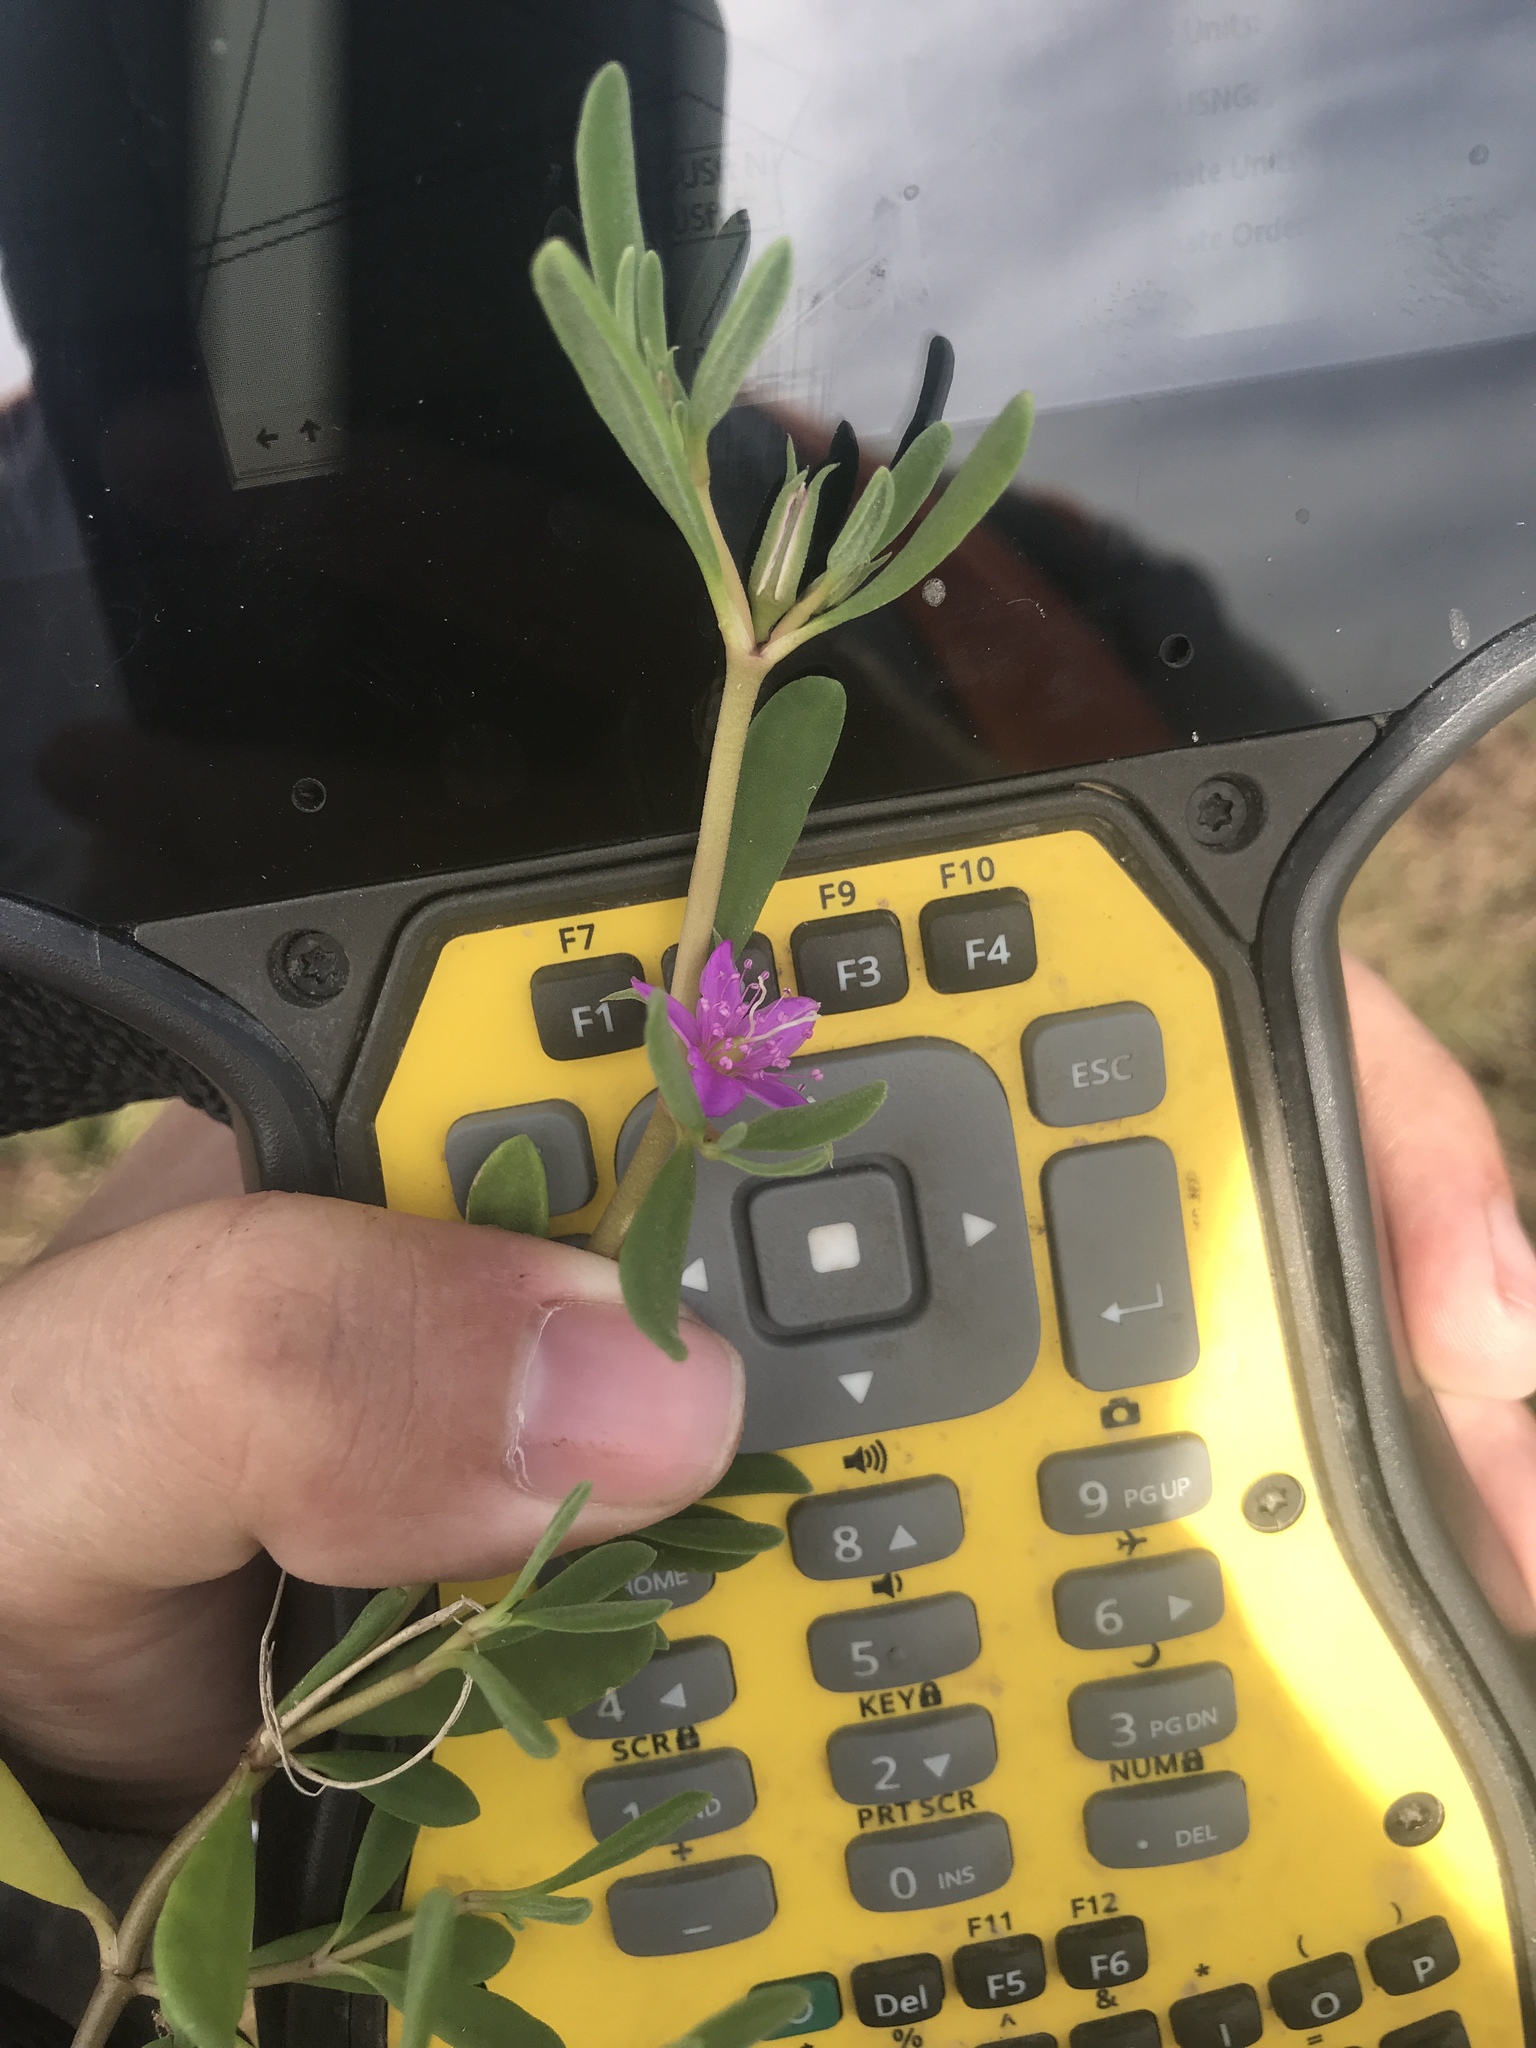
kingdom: Plantae
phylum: Tracheophyta
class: Magnoliopsida
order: Caryophyllales
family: Aizoaceae
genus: Sesuvium
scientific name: Sesuvium revolutifolium
